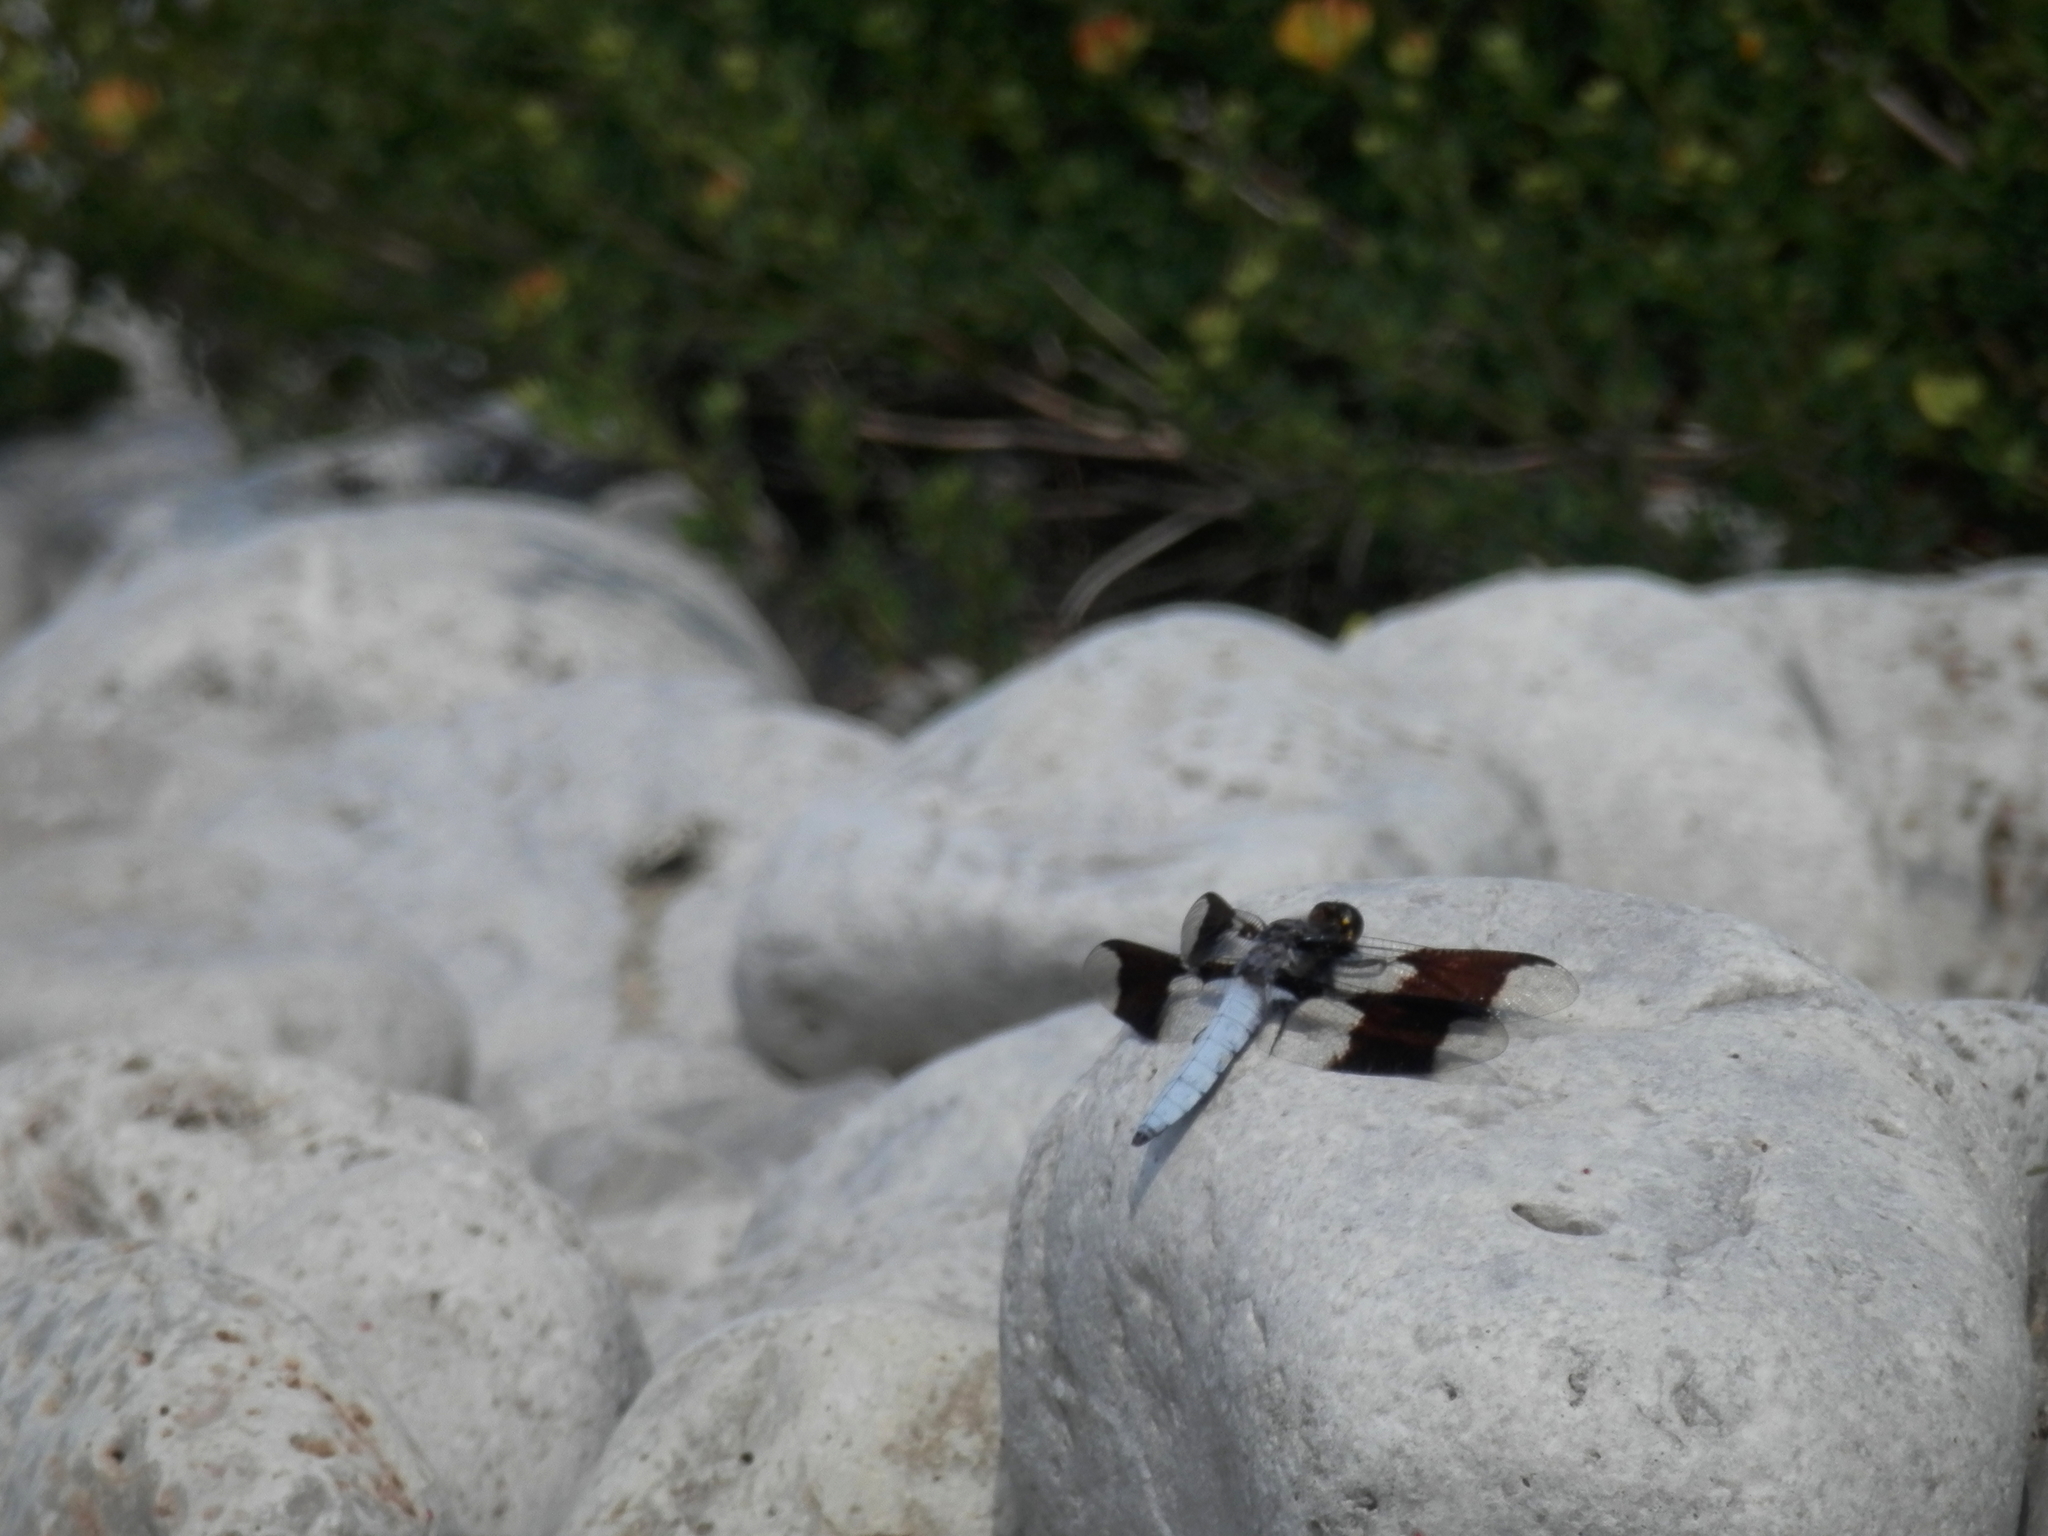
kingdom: Animalia
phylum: Arthropoda
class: Insecta
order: Odonata
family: Libellulidae
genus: Plathemis
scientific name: Plathemis lydia
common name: Common whitetail
